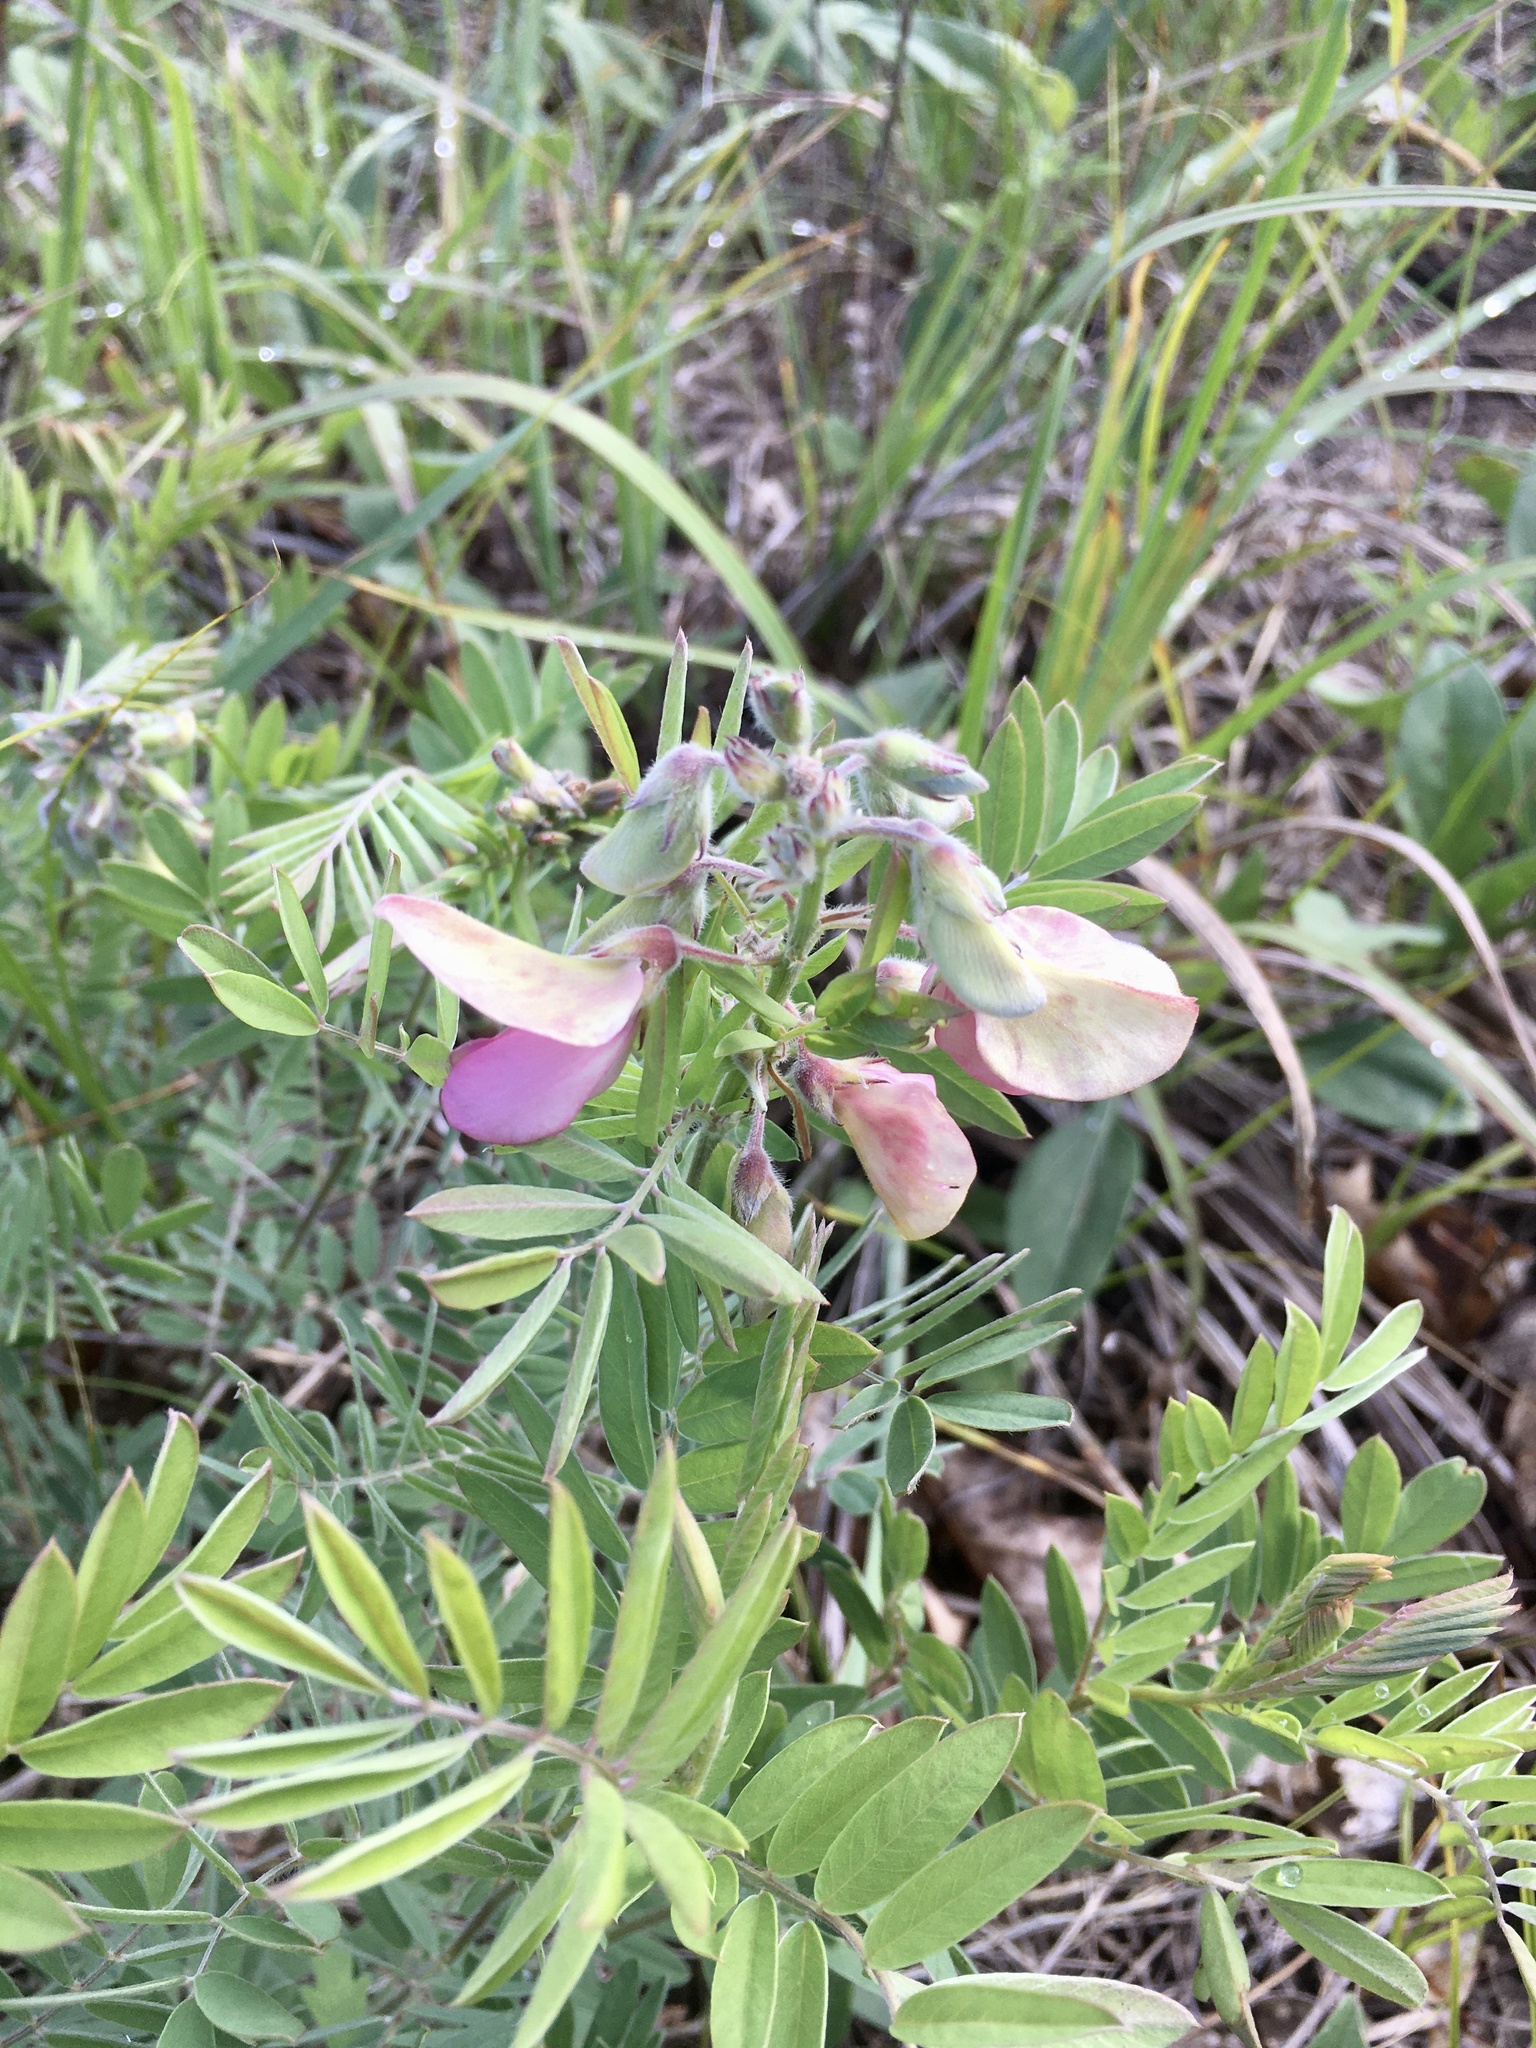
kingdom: Plantae
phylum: Tracheophyta
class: Magnoliopsida
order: Fabales
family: Fabaceae
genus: Tephrosia
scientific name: Tephrosia virginiana
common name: Rabbit-pea
